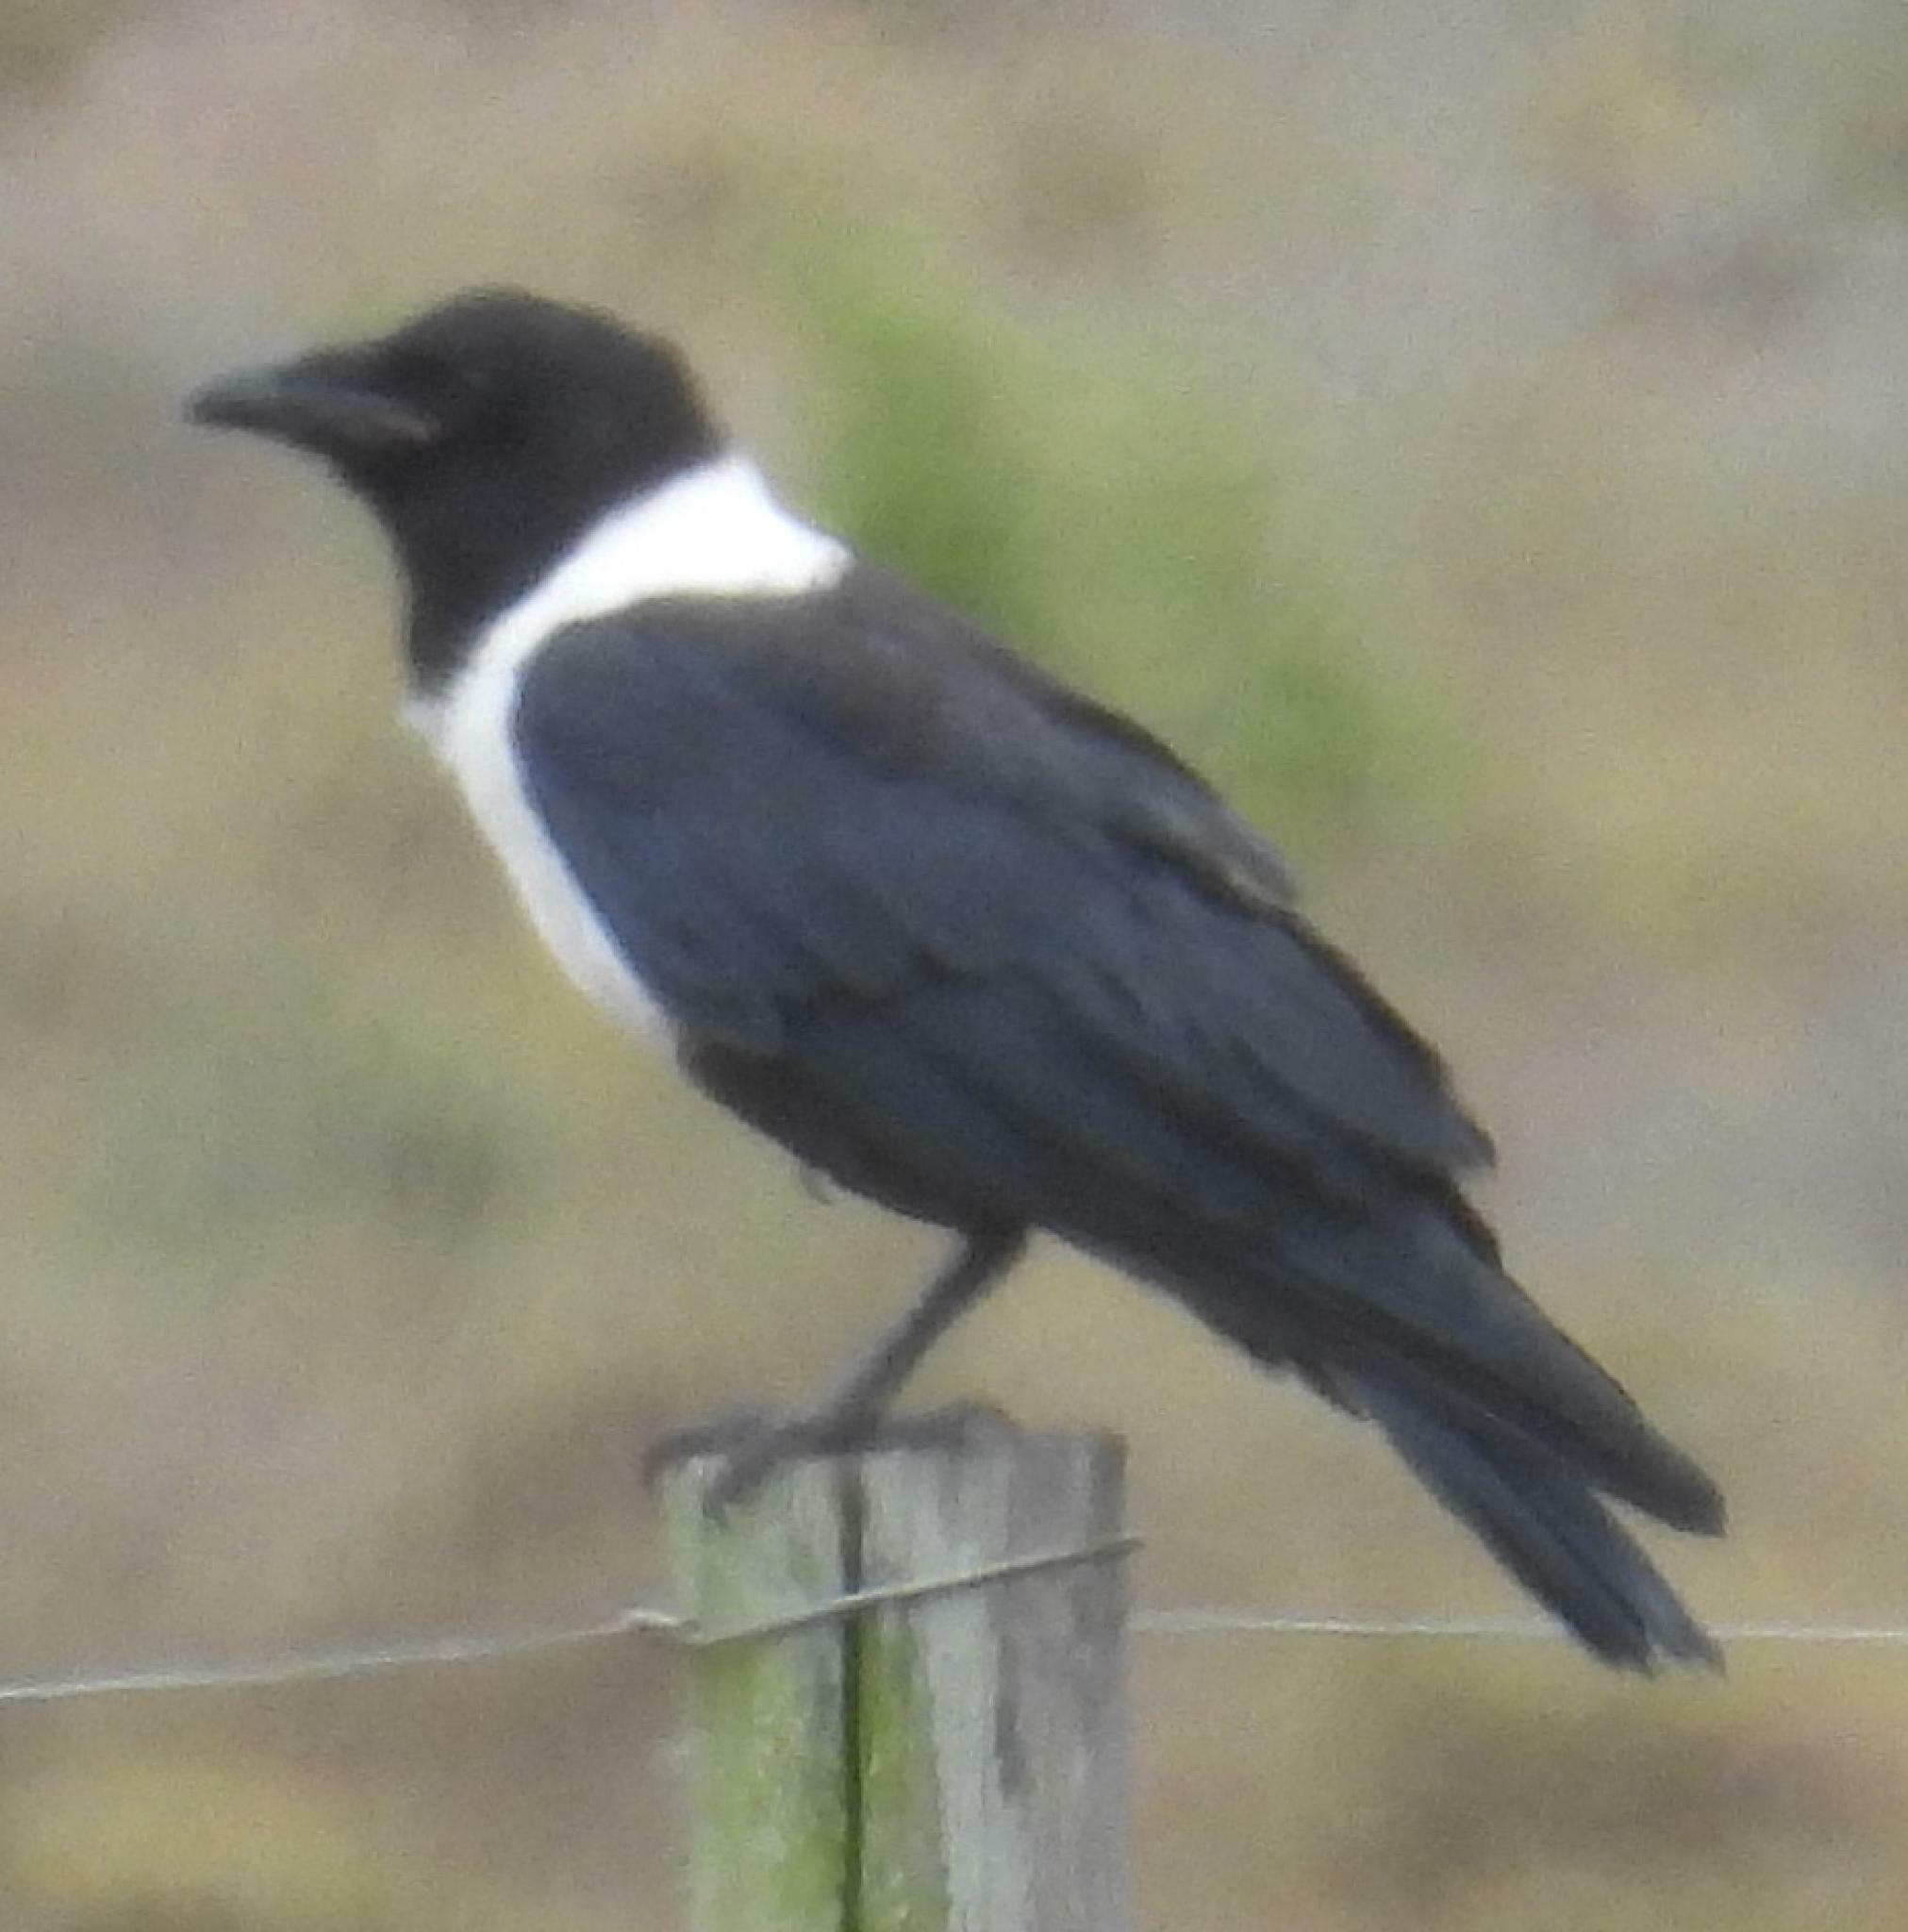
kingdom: Animalia
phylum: Chordata
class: Aves
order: Passeriformes
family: Corvidae
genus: Corvus
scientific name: Corvus albus
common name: Pied crow
